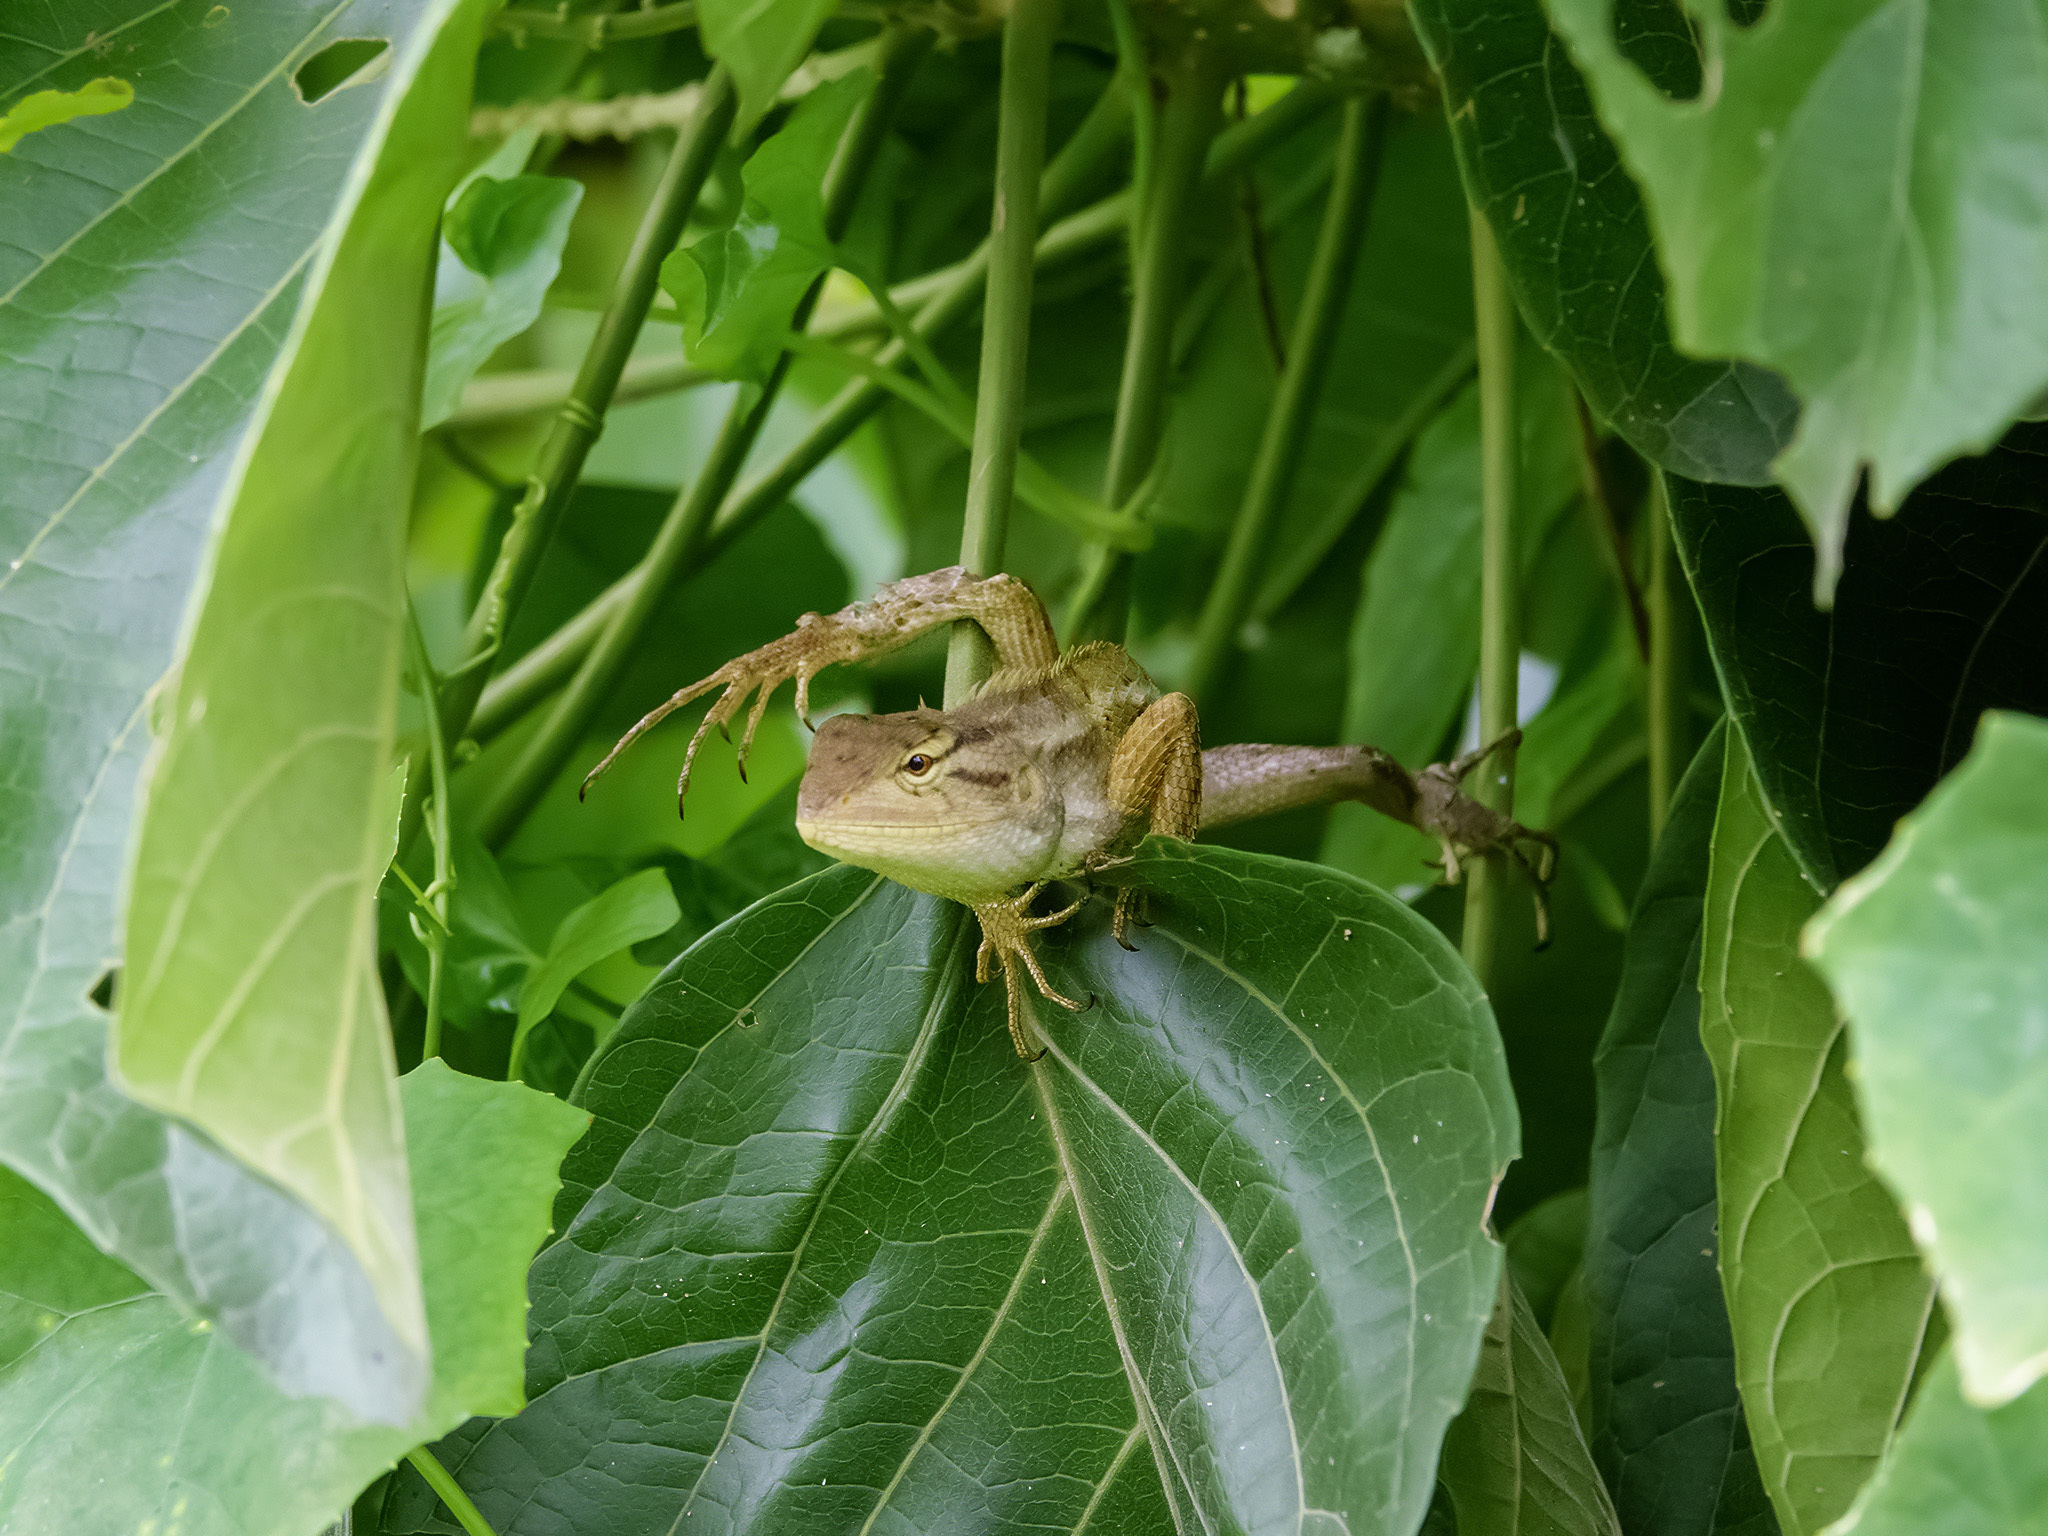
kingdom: Animalia
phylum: Chordata
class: Squamata
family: Agamidae
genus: Calotes
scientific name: Calotes versicolor
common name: Oriental garden lizard
